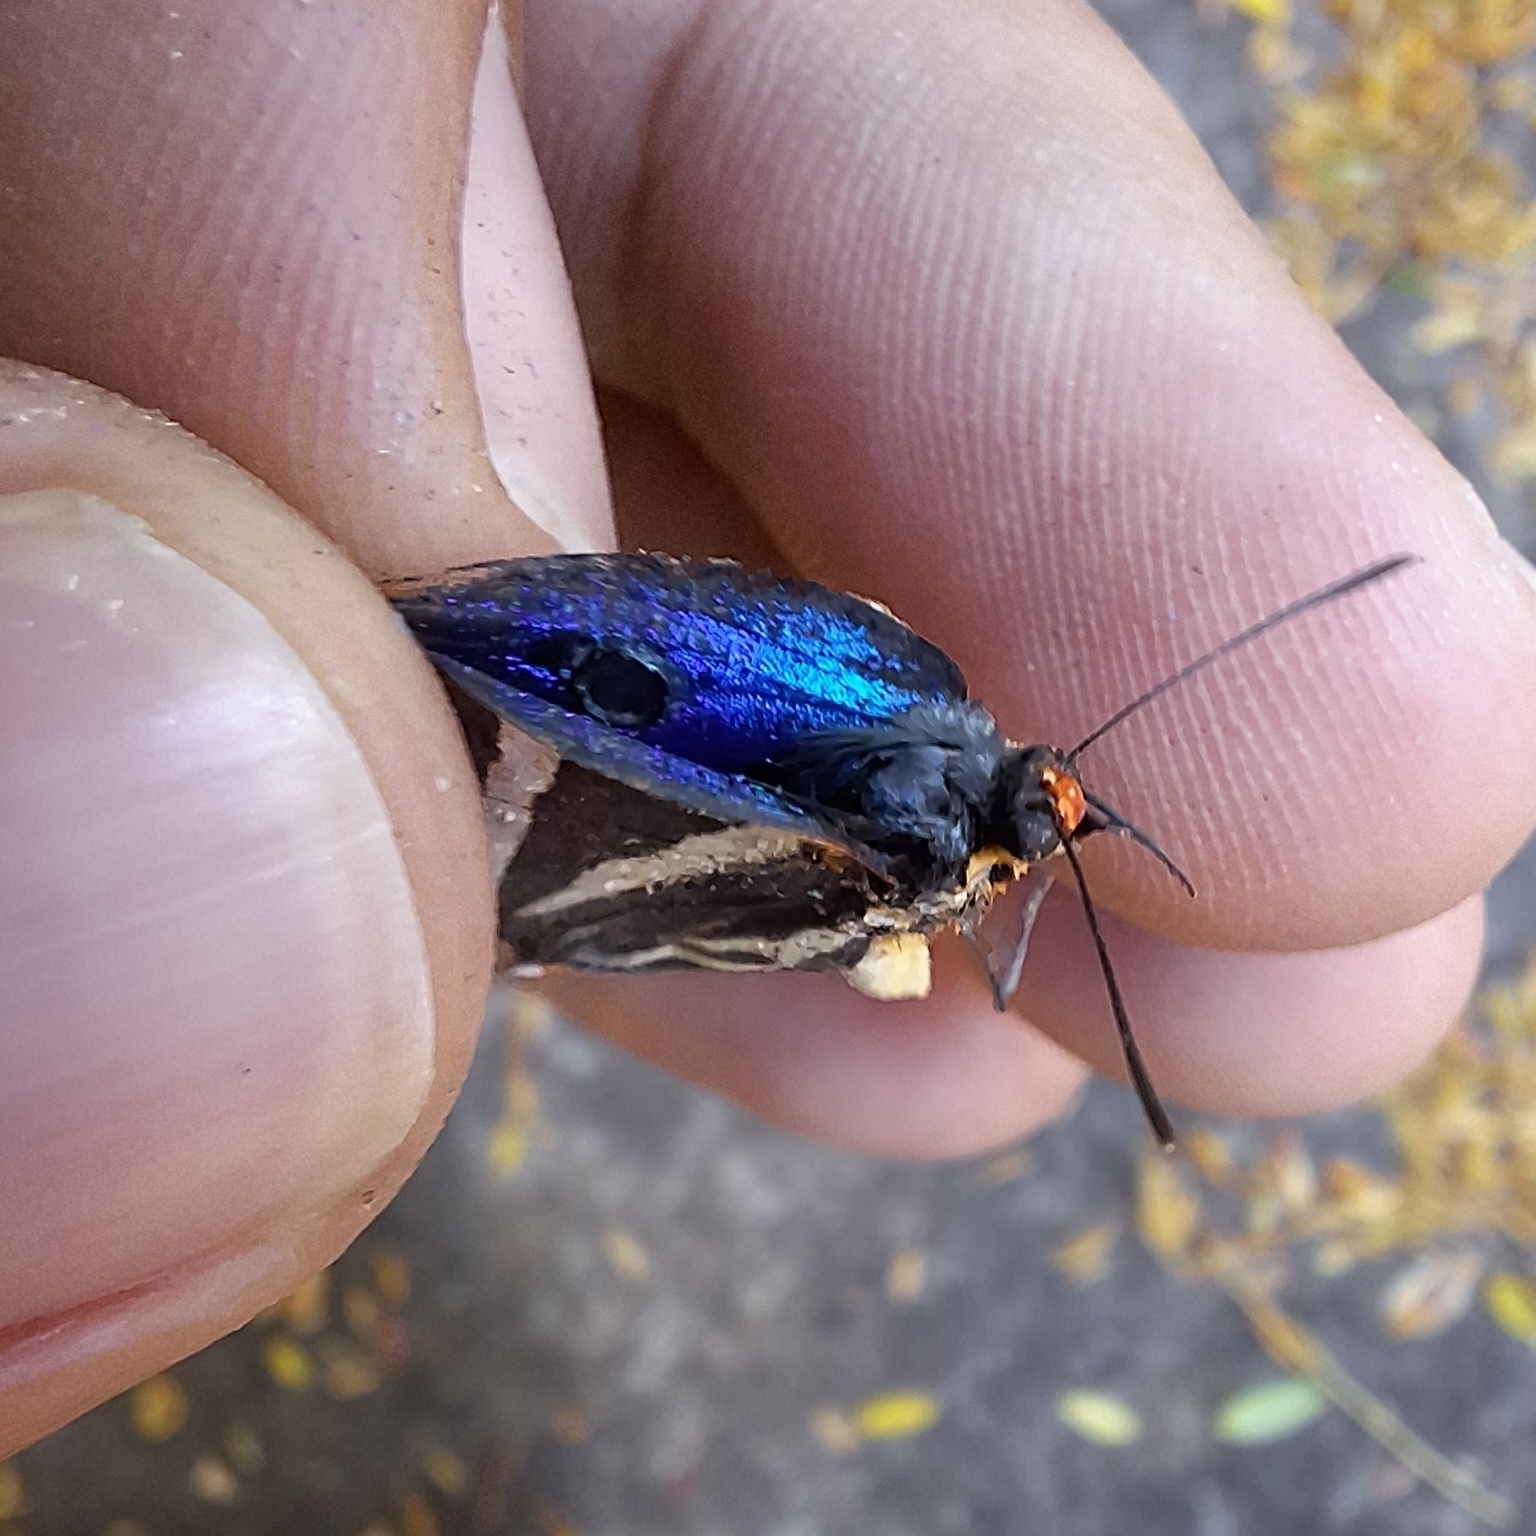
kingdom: Animalia
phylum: Arthropoda
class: Insecta
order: Lepidoptera
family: Lycaenidae
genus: Thecla
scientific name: Thecla bathildis
